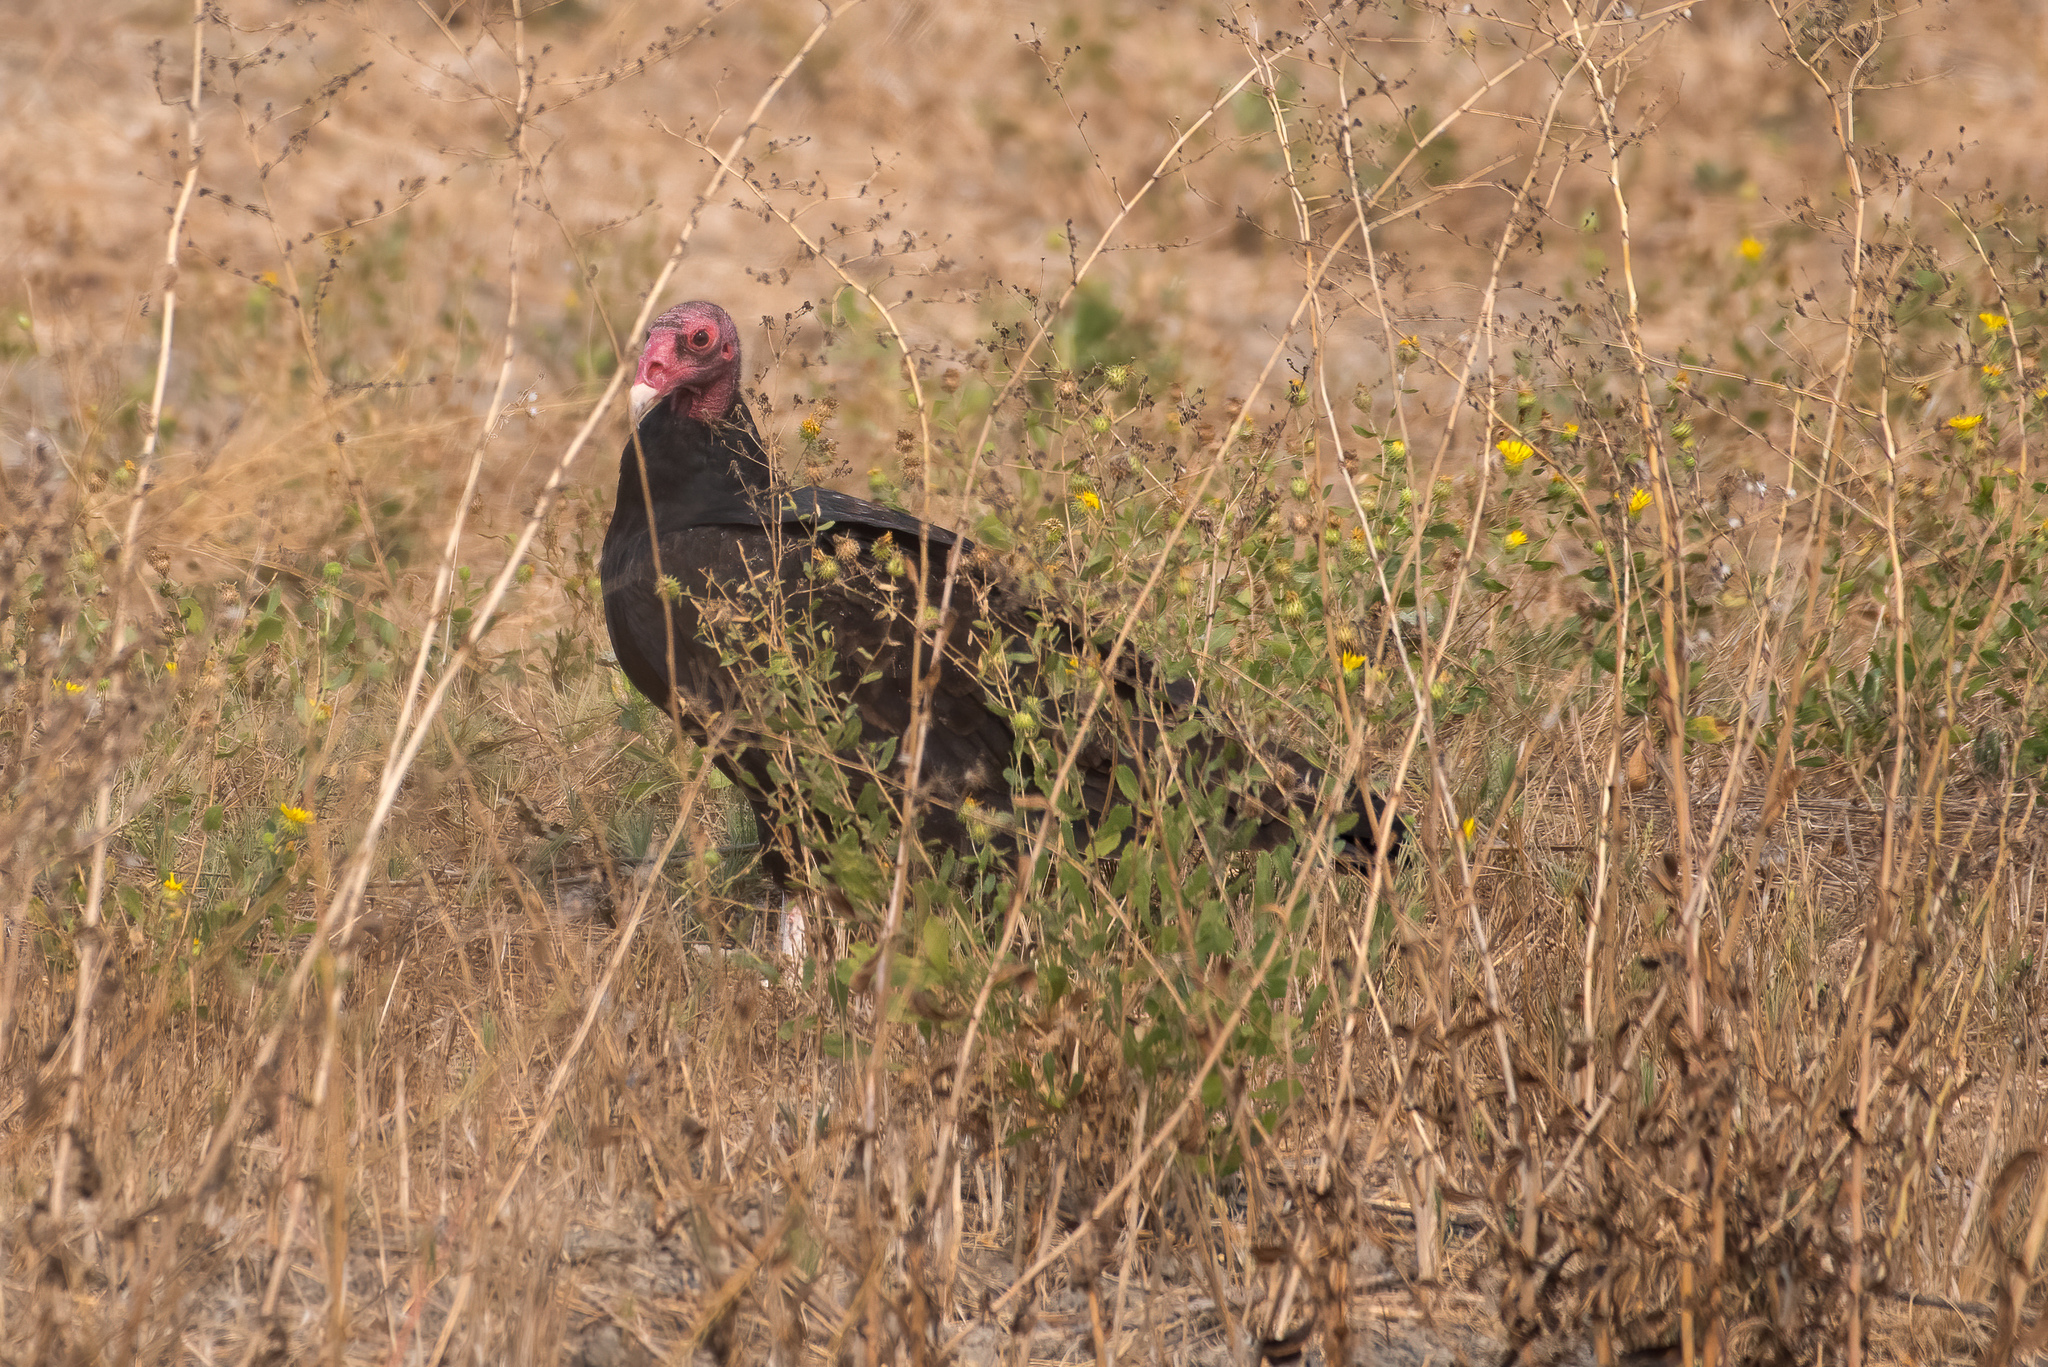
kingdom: Animalia
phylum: Chordata
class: Aves
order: Accipitriformes
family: Cathartidae
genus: Cathartes
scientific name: Cathartes aura
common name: Turkey vulture
